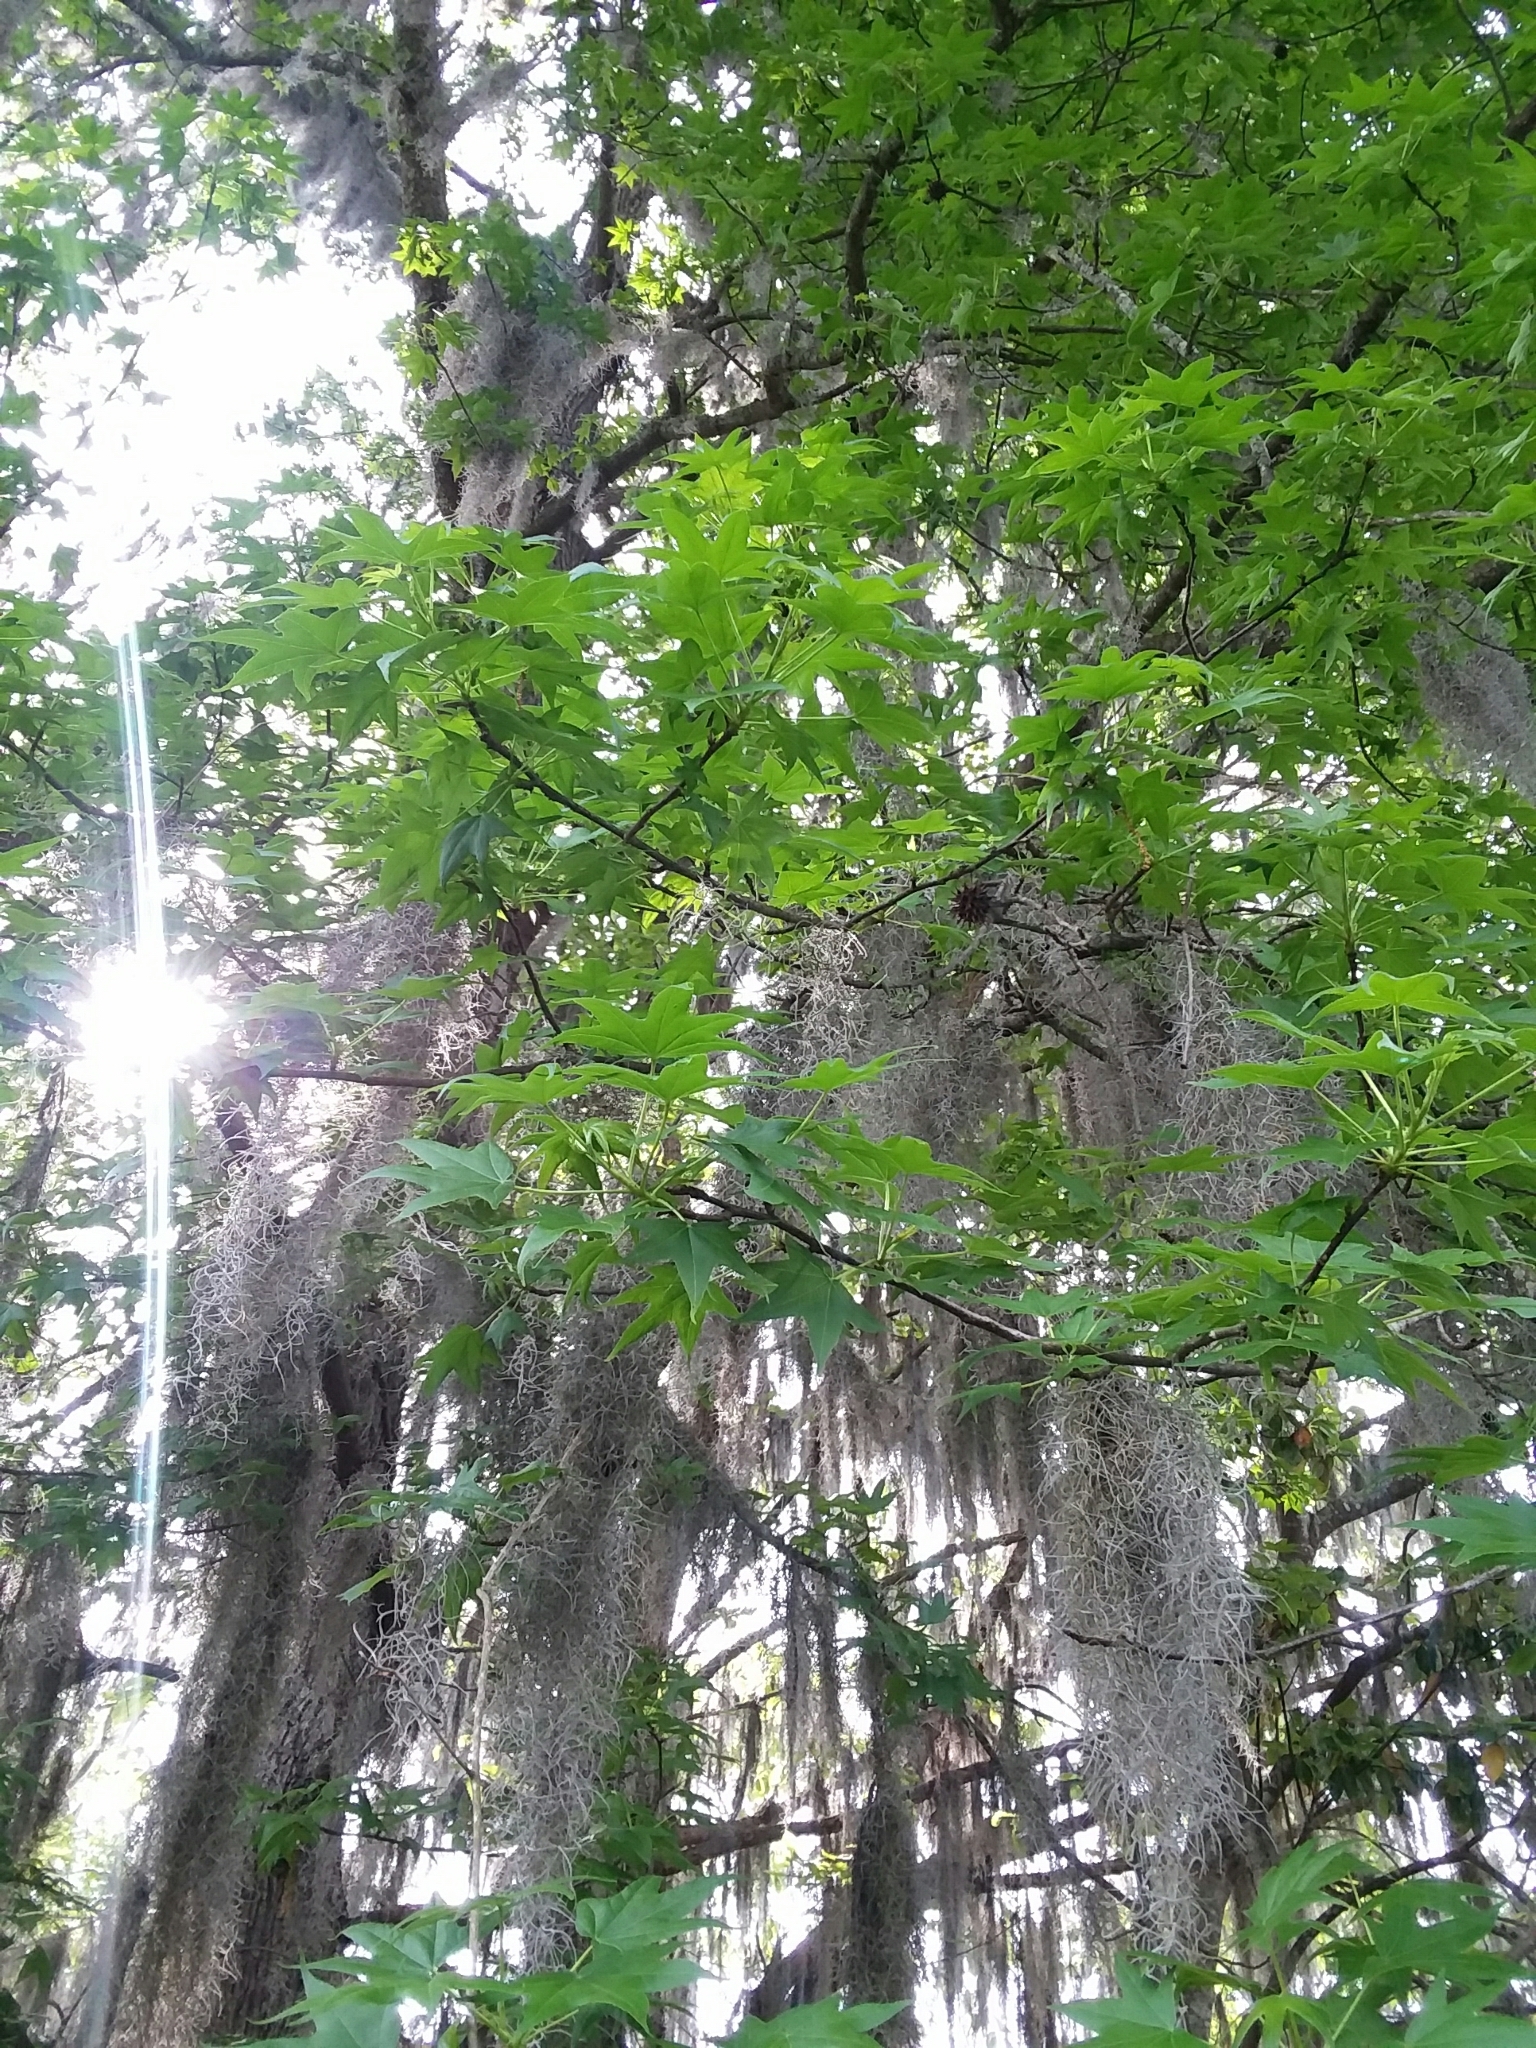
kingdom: Plantae
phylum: Tracheophyta
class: Magnoliopsida
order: Saxifragales
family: Altingiaceae
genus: Liquidambar
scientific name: Liquidambar styraciflua
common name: Sweet gum
